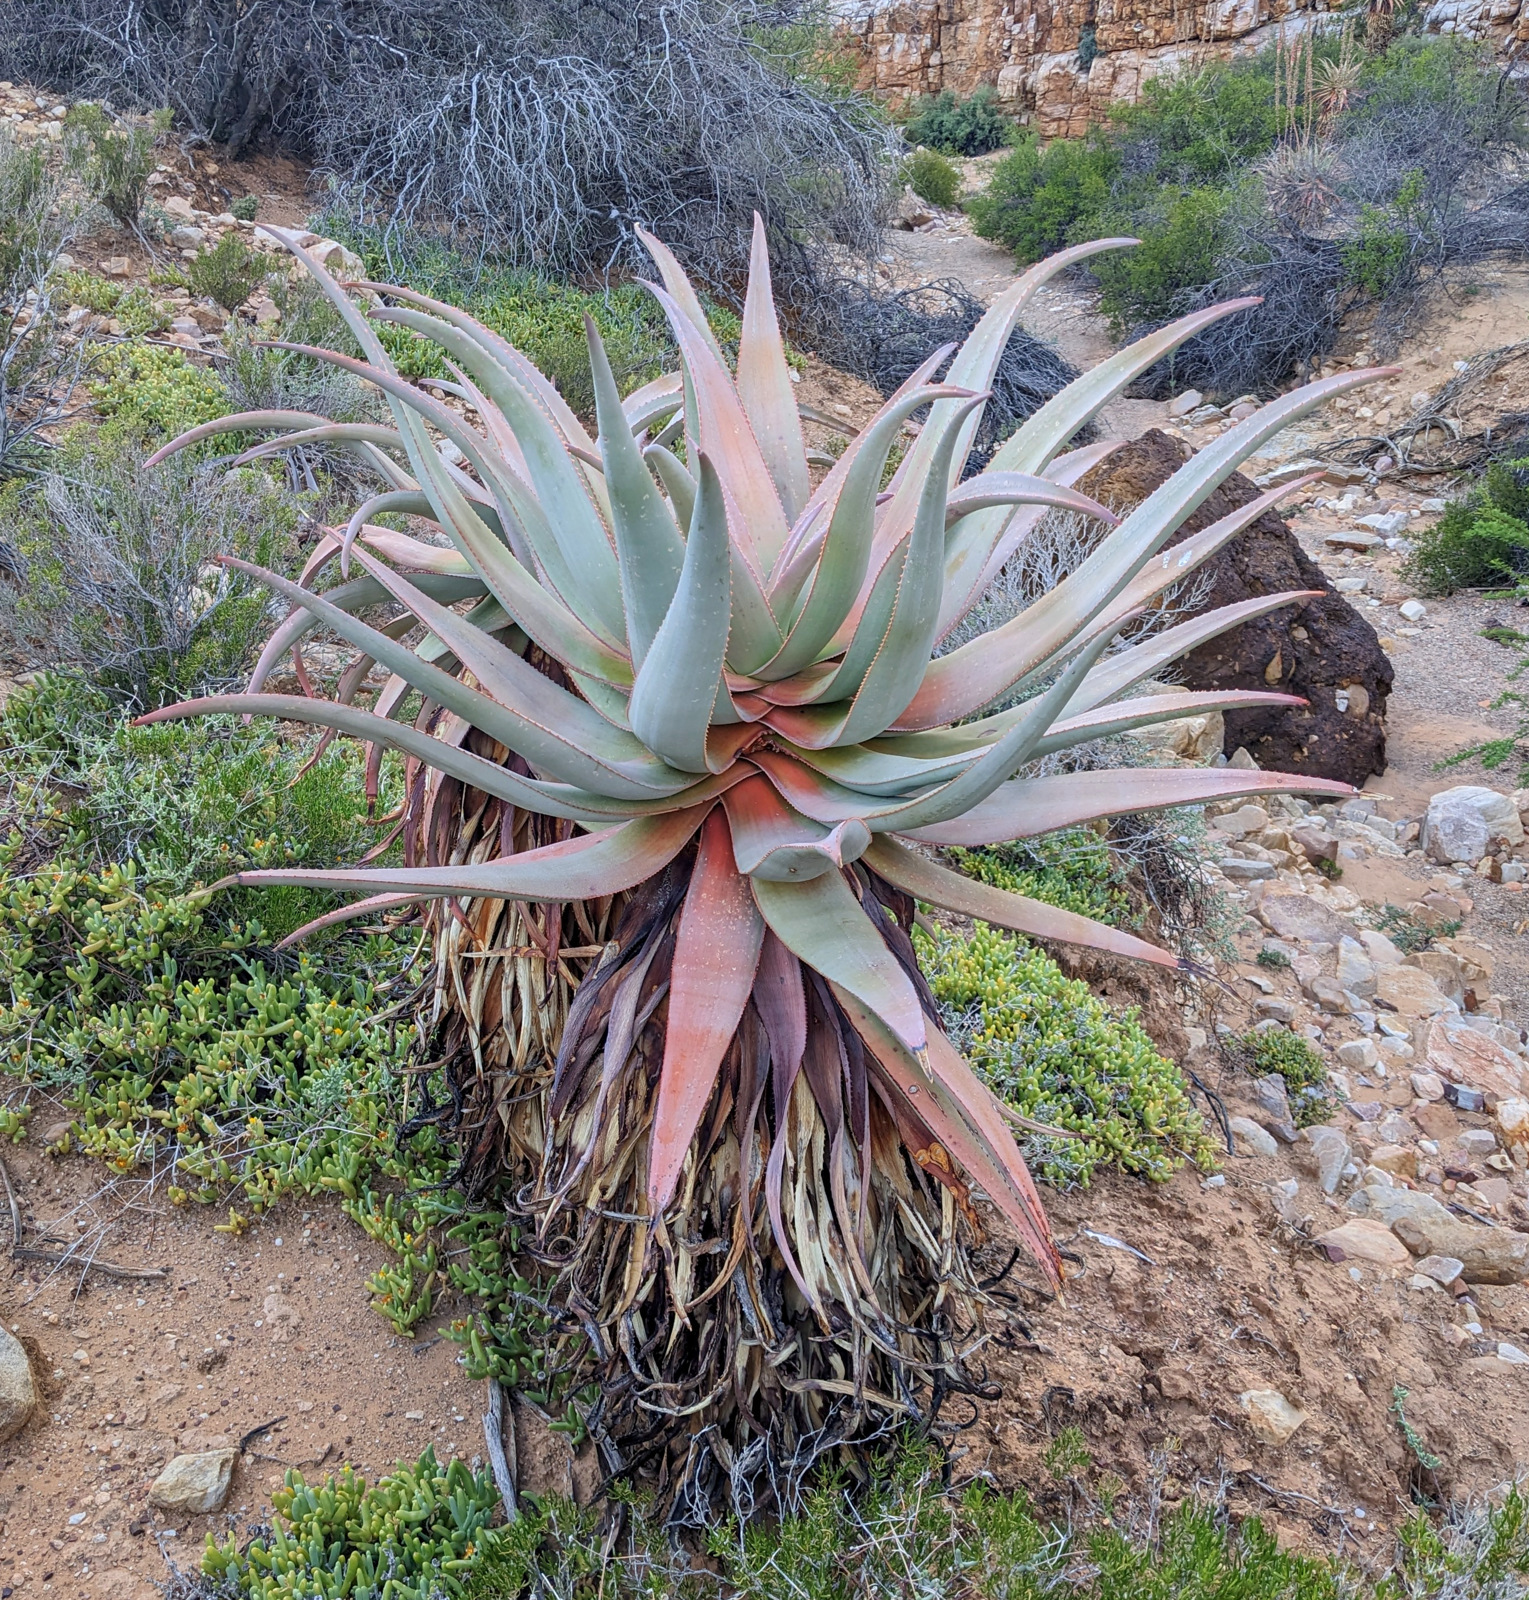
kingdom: Plantae
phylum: Tracheophyta
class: Liliopsida
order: Asparagales
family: Asphodelaceae
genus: Aloe
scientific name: Aloe comosa
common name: Clanwilliam aloe
